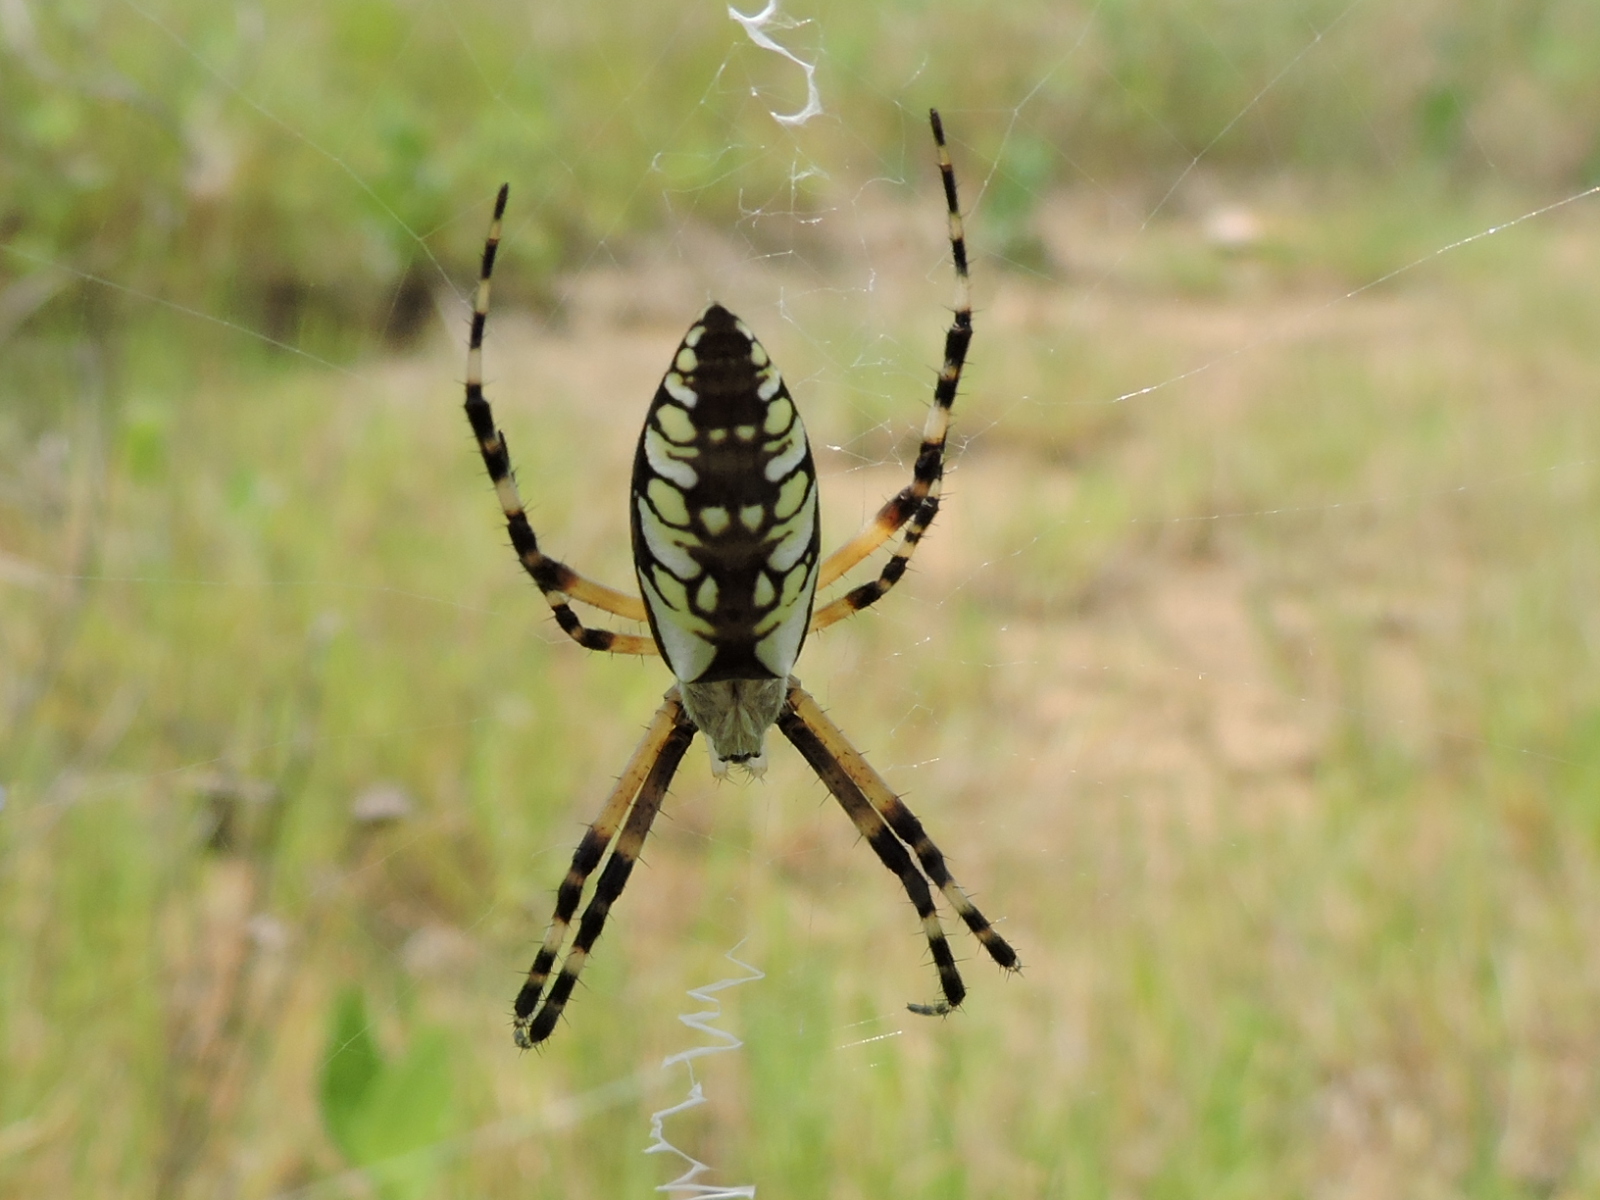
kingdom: Animalia
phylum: Arthropoda
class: Arachnida
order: Araneae
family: Araneidae
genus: Argiope
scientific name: Argiope aurantia
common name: Orb weavers
